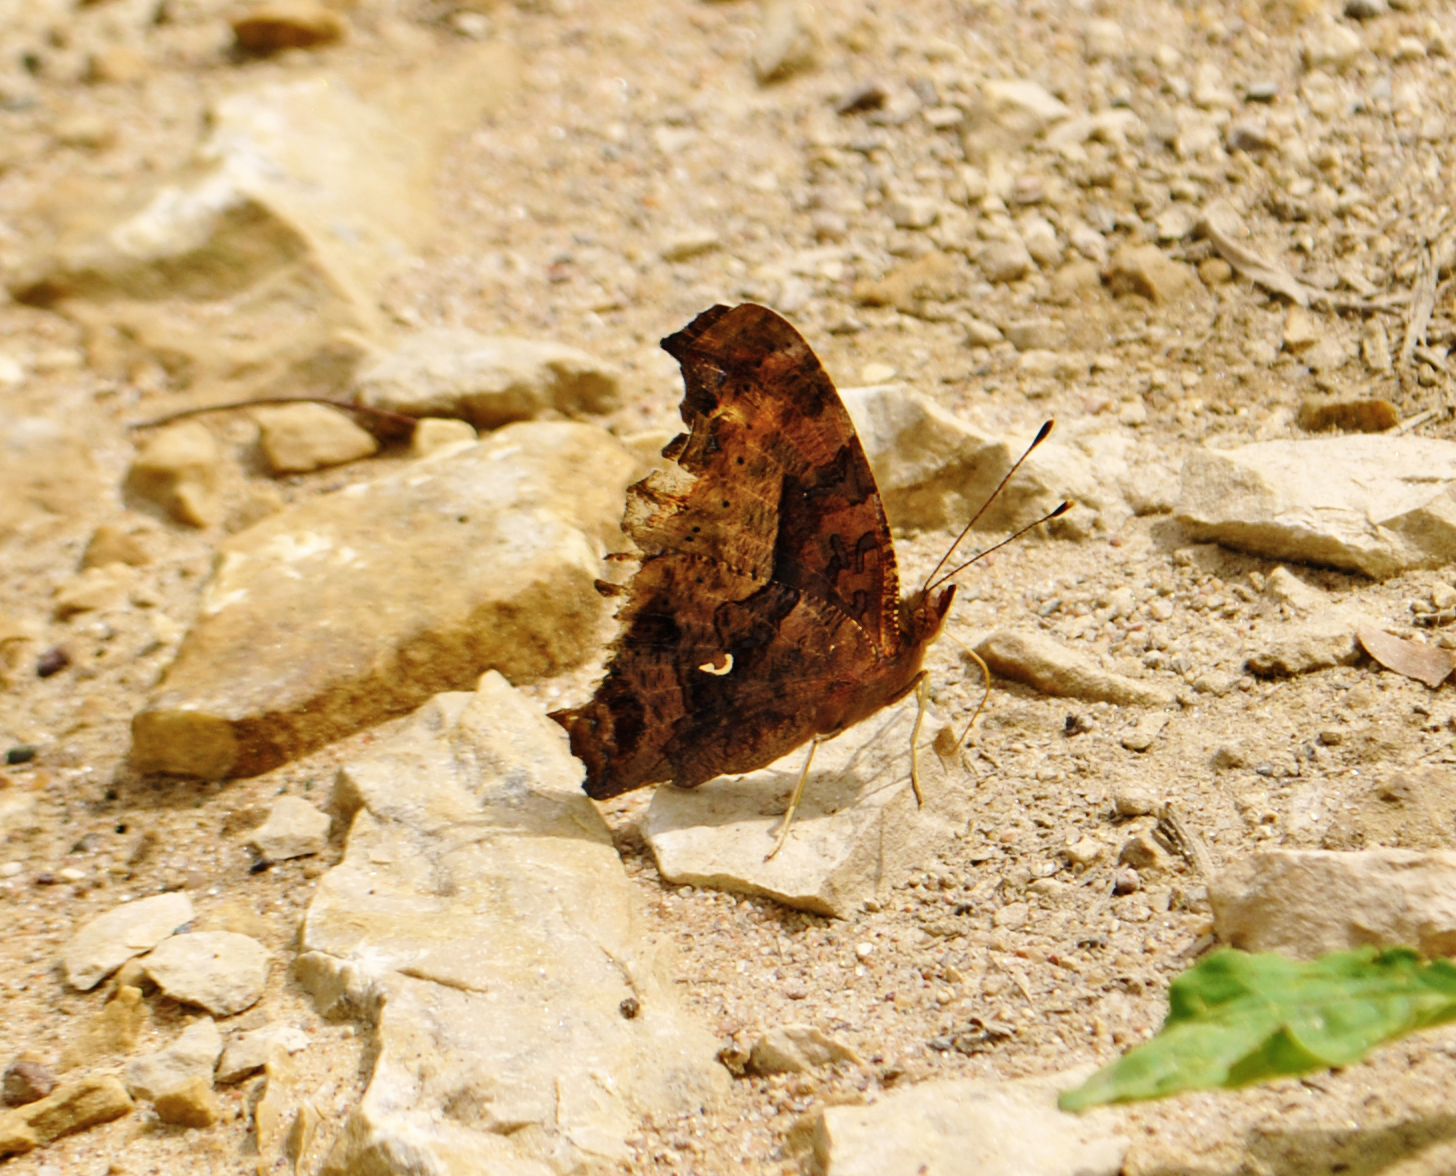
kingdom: Animalia
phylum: Arthropoda
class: Insecta
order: Lepidoptera
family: Nymphalidae
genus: Polygonia
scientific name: Polygonia comma
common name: Eastern comma
